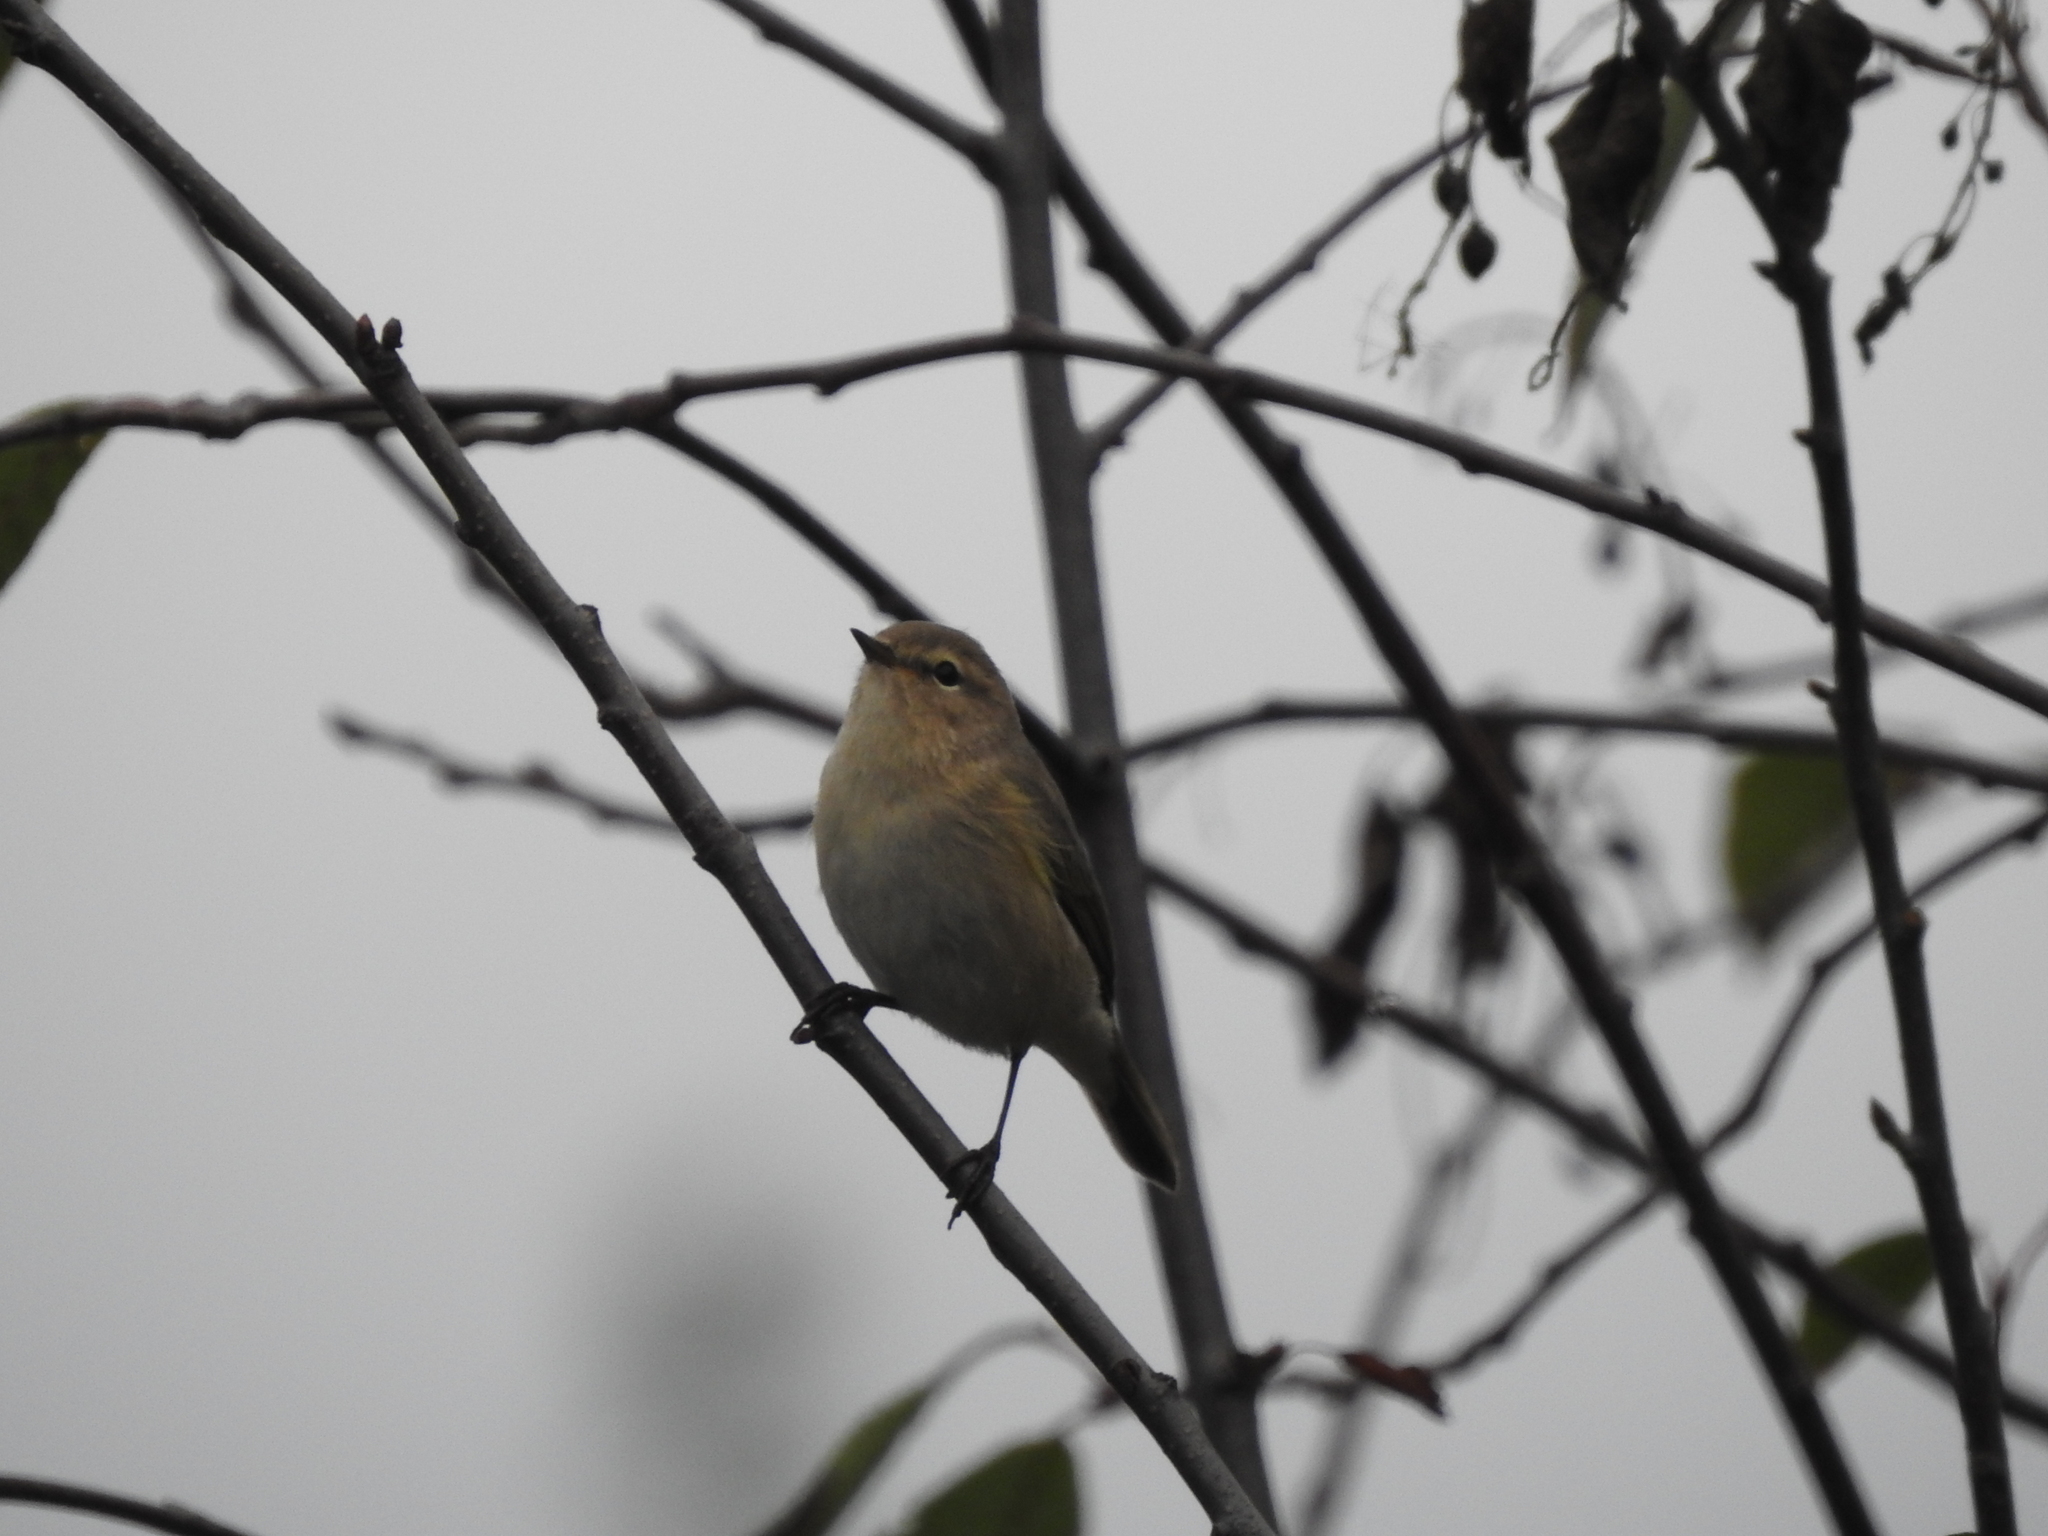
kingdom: Animalia
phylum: Chordata
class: Aves
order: Passeriformes
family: Phylloscopidae
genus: Phylloscopus
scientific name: Phylloscopus collybita
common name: Common chiffchaff
